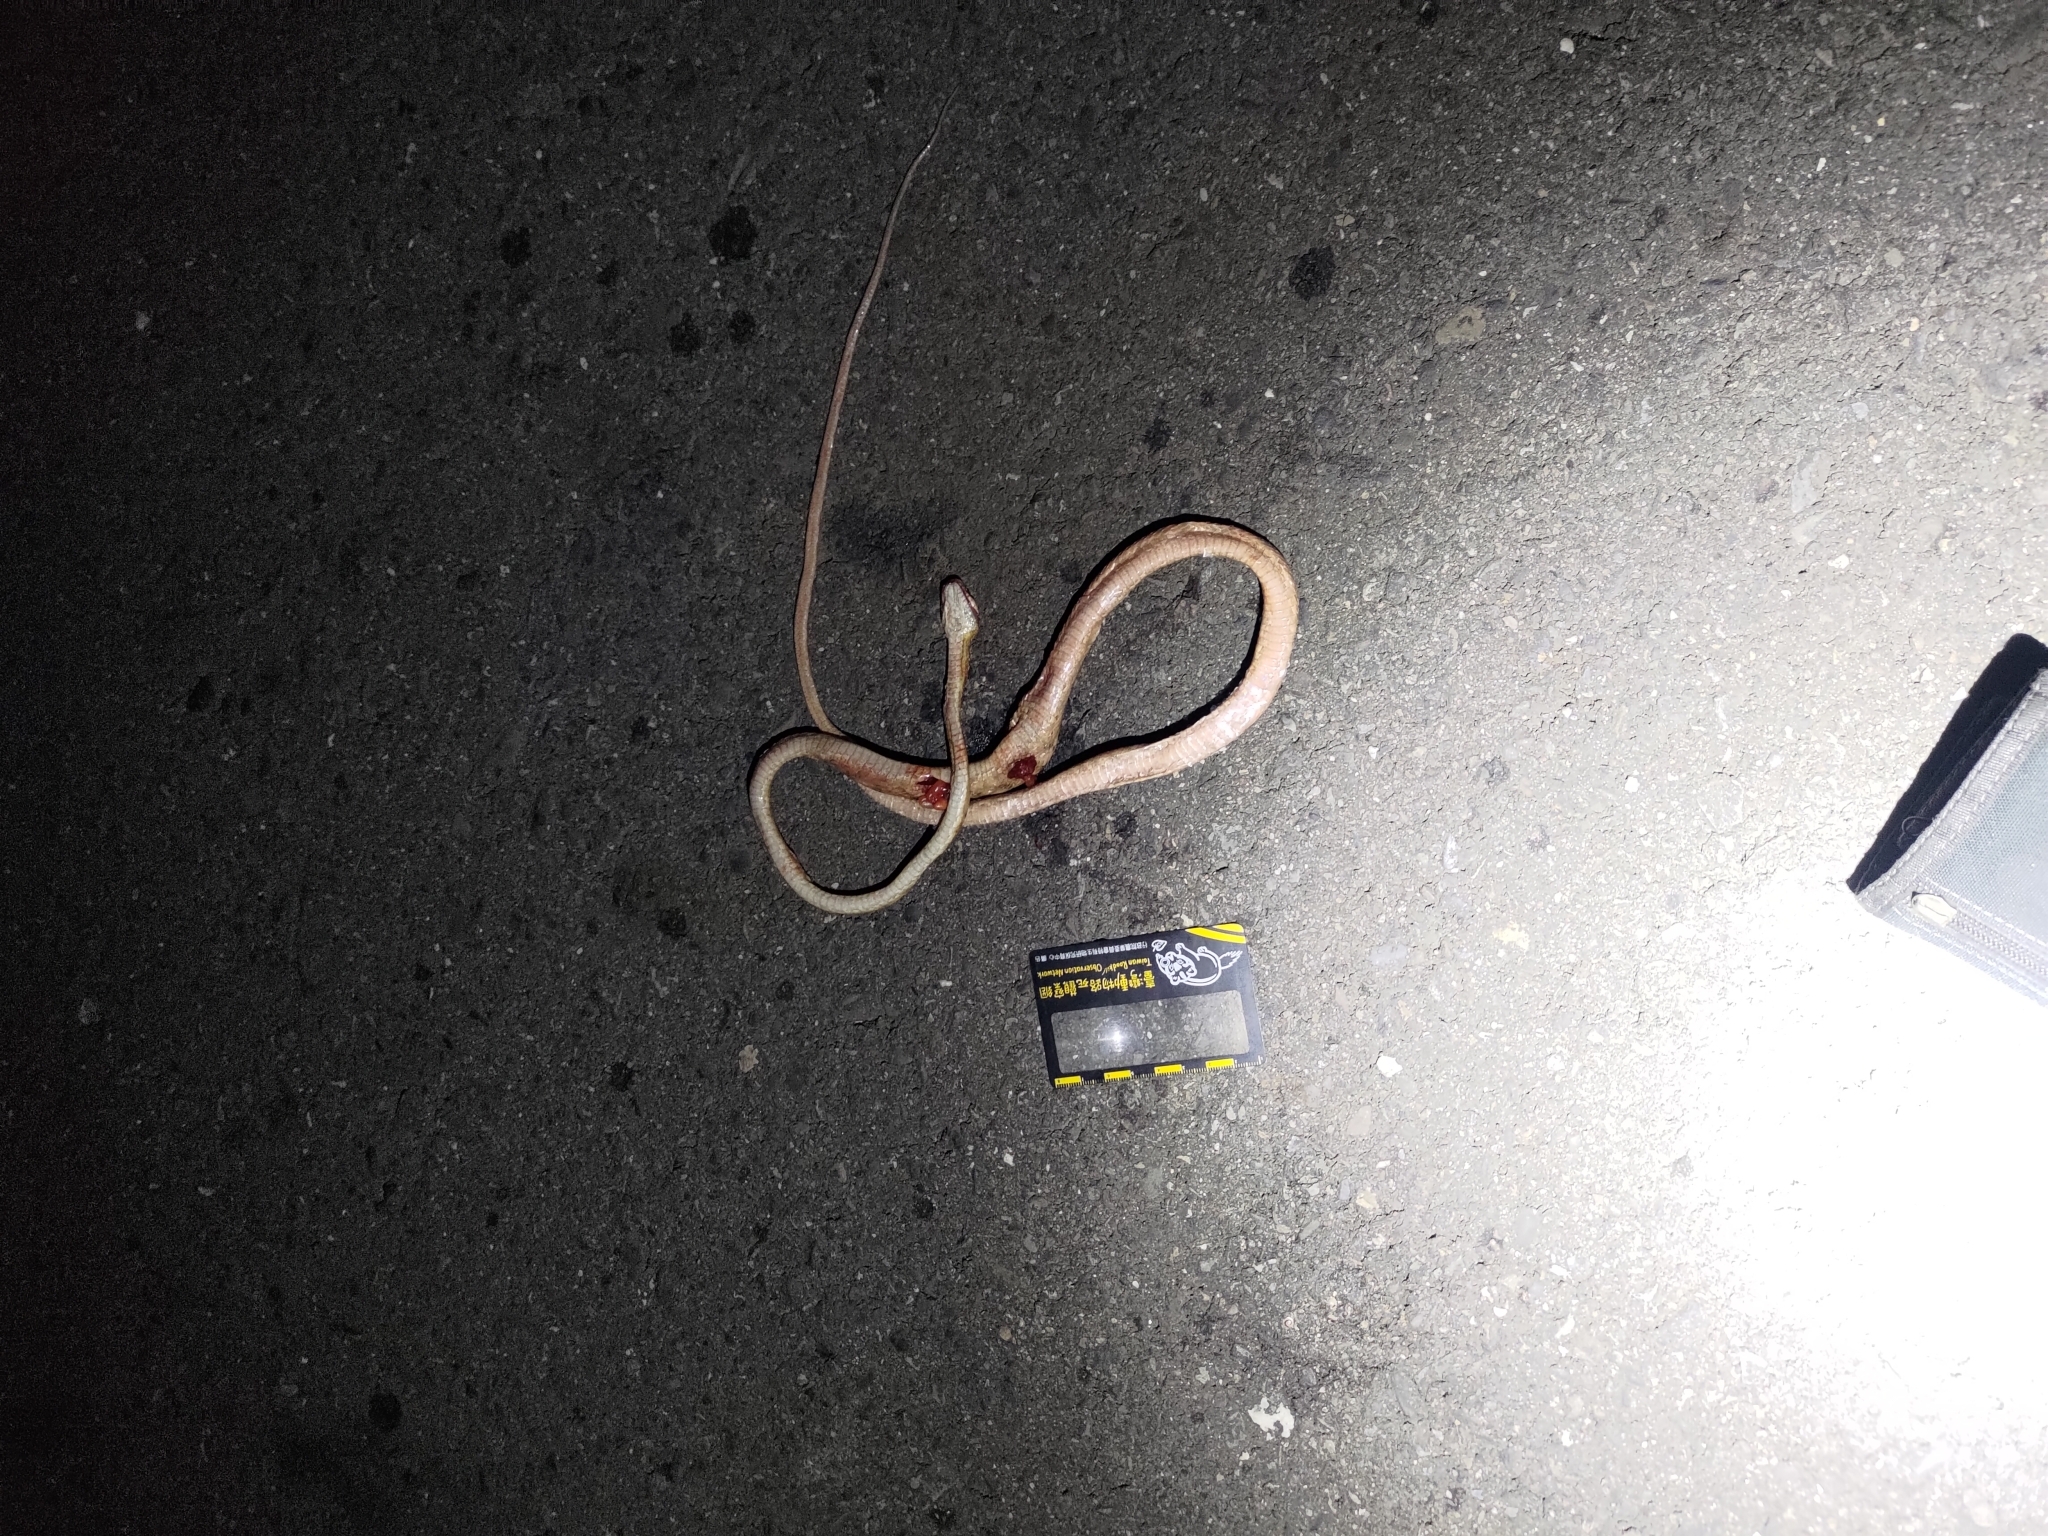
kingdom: Animalia
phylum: Chordata
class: Squamata
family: Colubridae
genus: Boiga
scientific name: Boiga kraepelini
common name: Kelung cat snake
